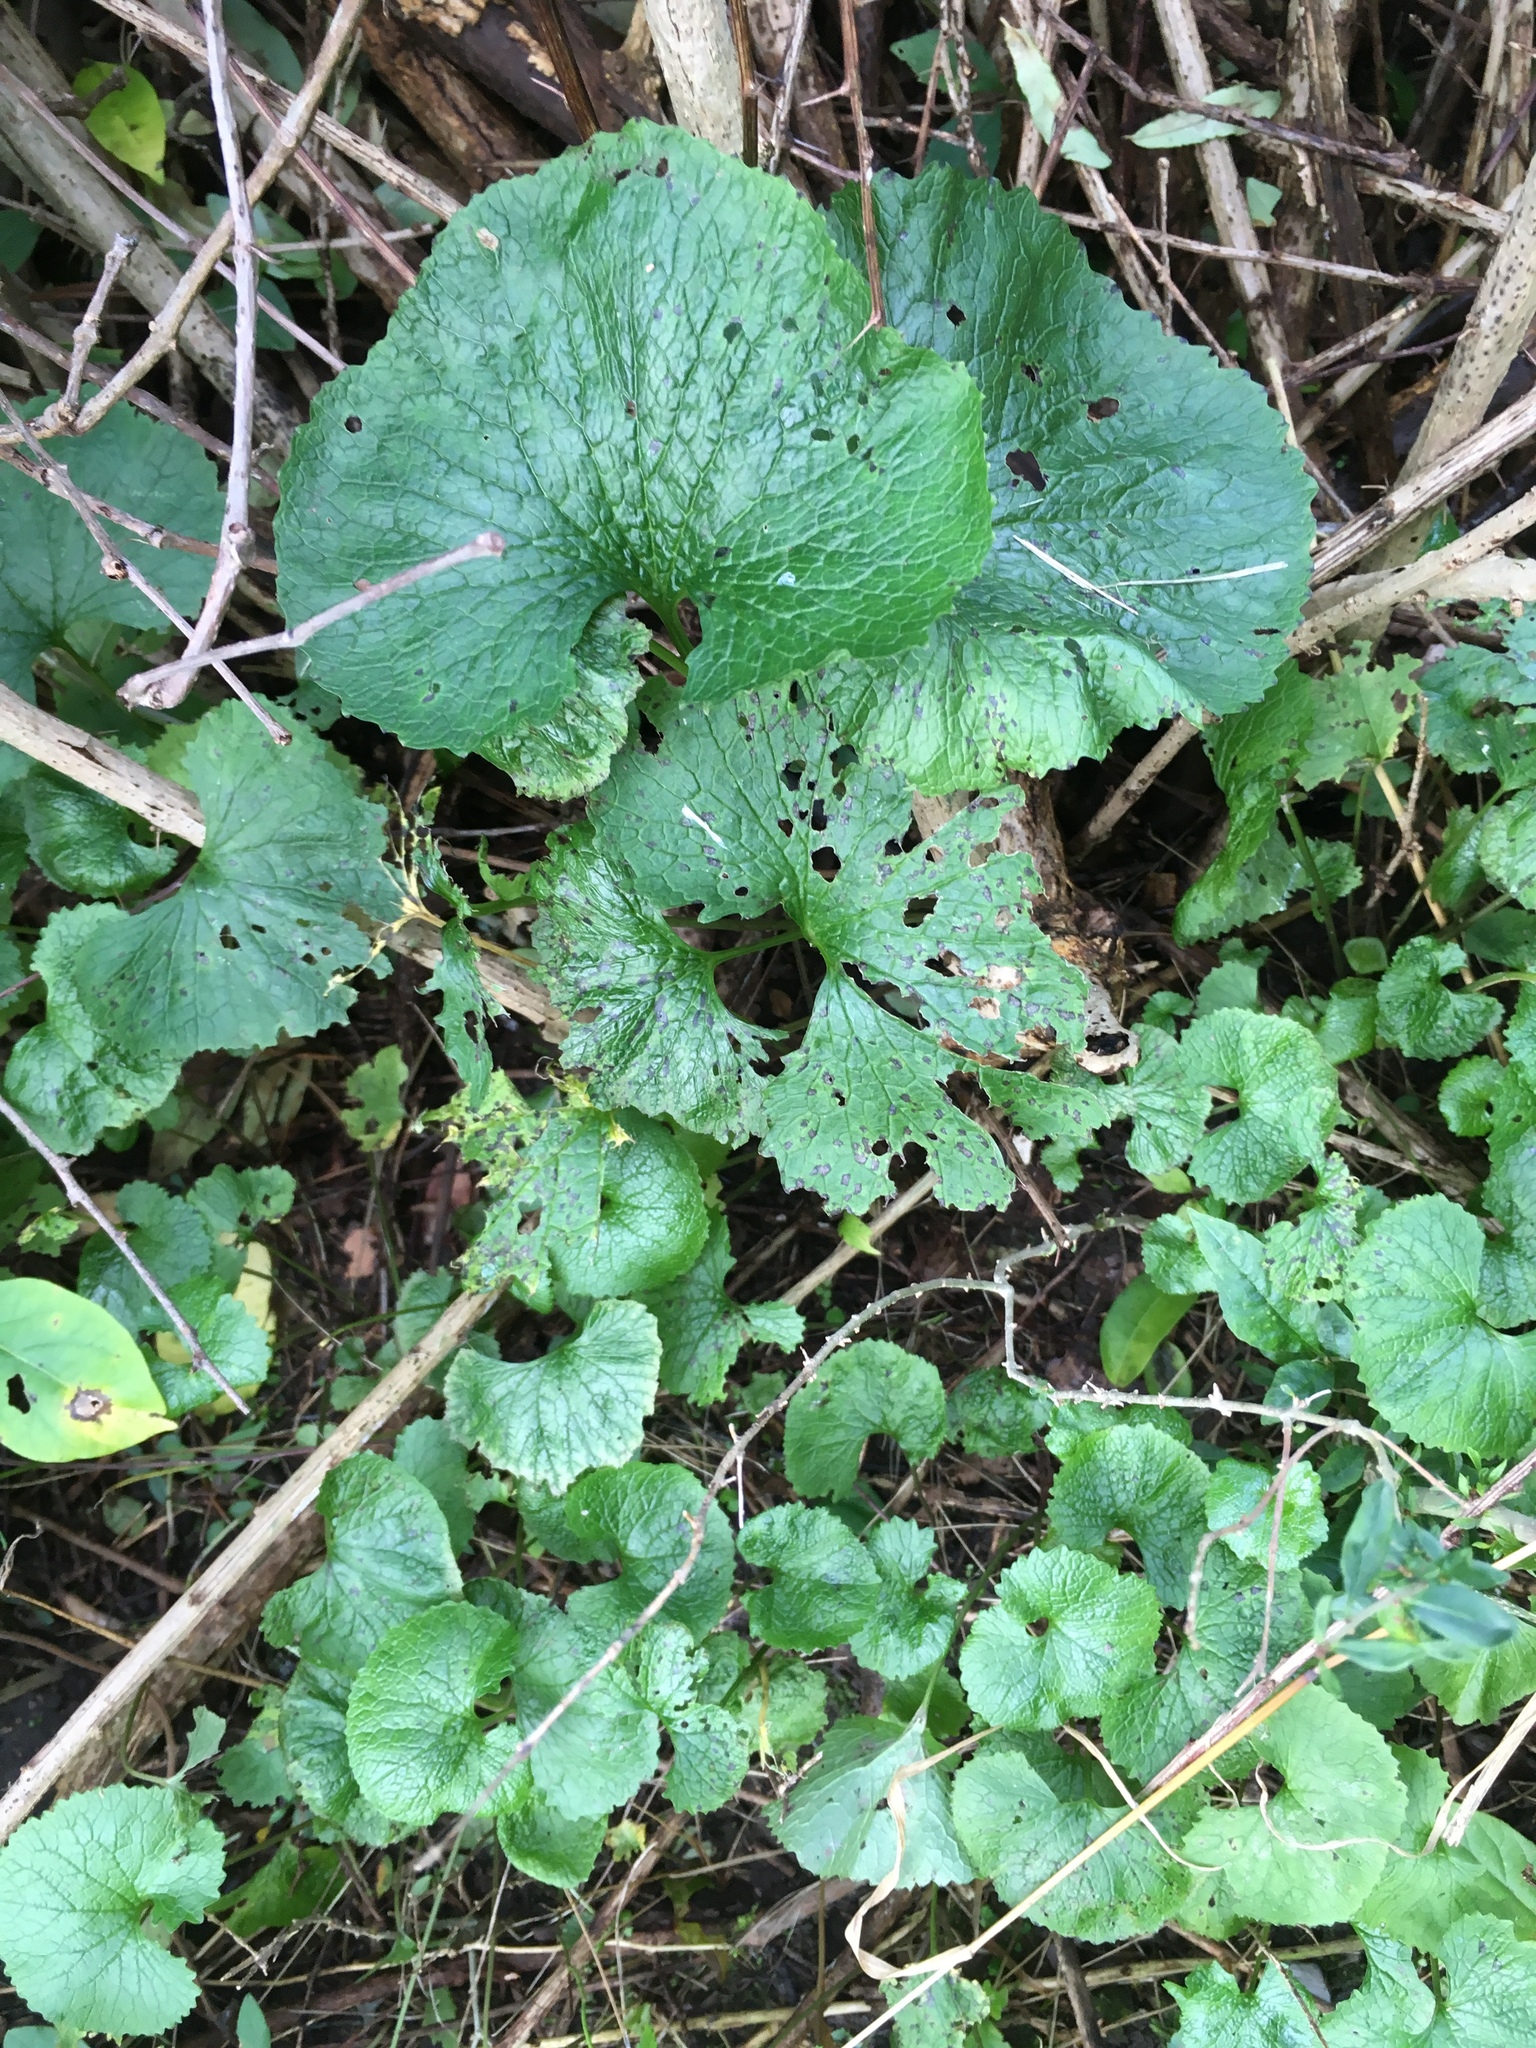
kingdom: Plantae
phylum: Tracheophyta
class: Magnoliopsida
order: Brassicales
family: Brassicaceae
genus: Alliaria
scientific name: Alliaria petiolata
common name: Garlic mustard
